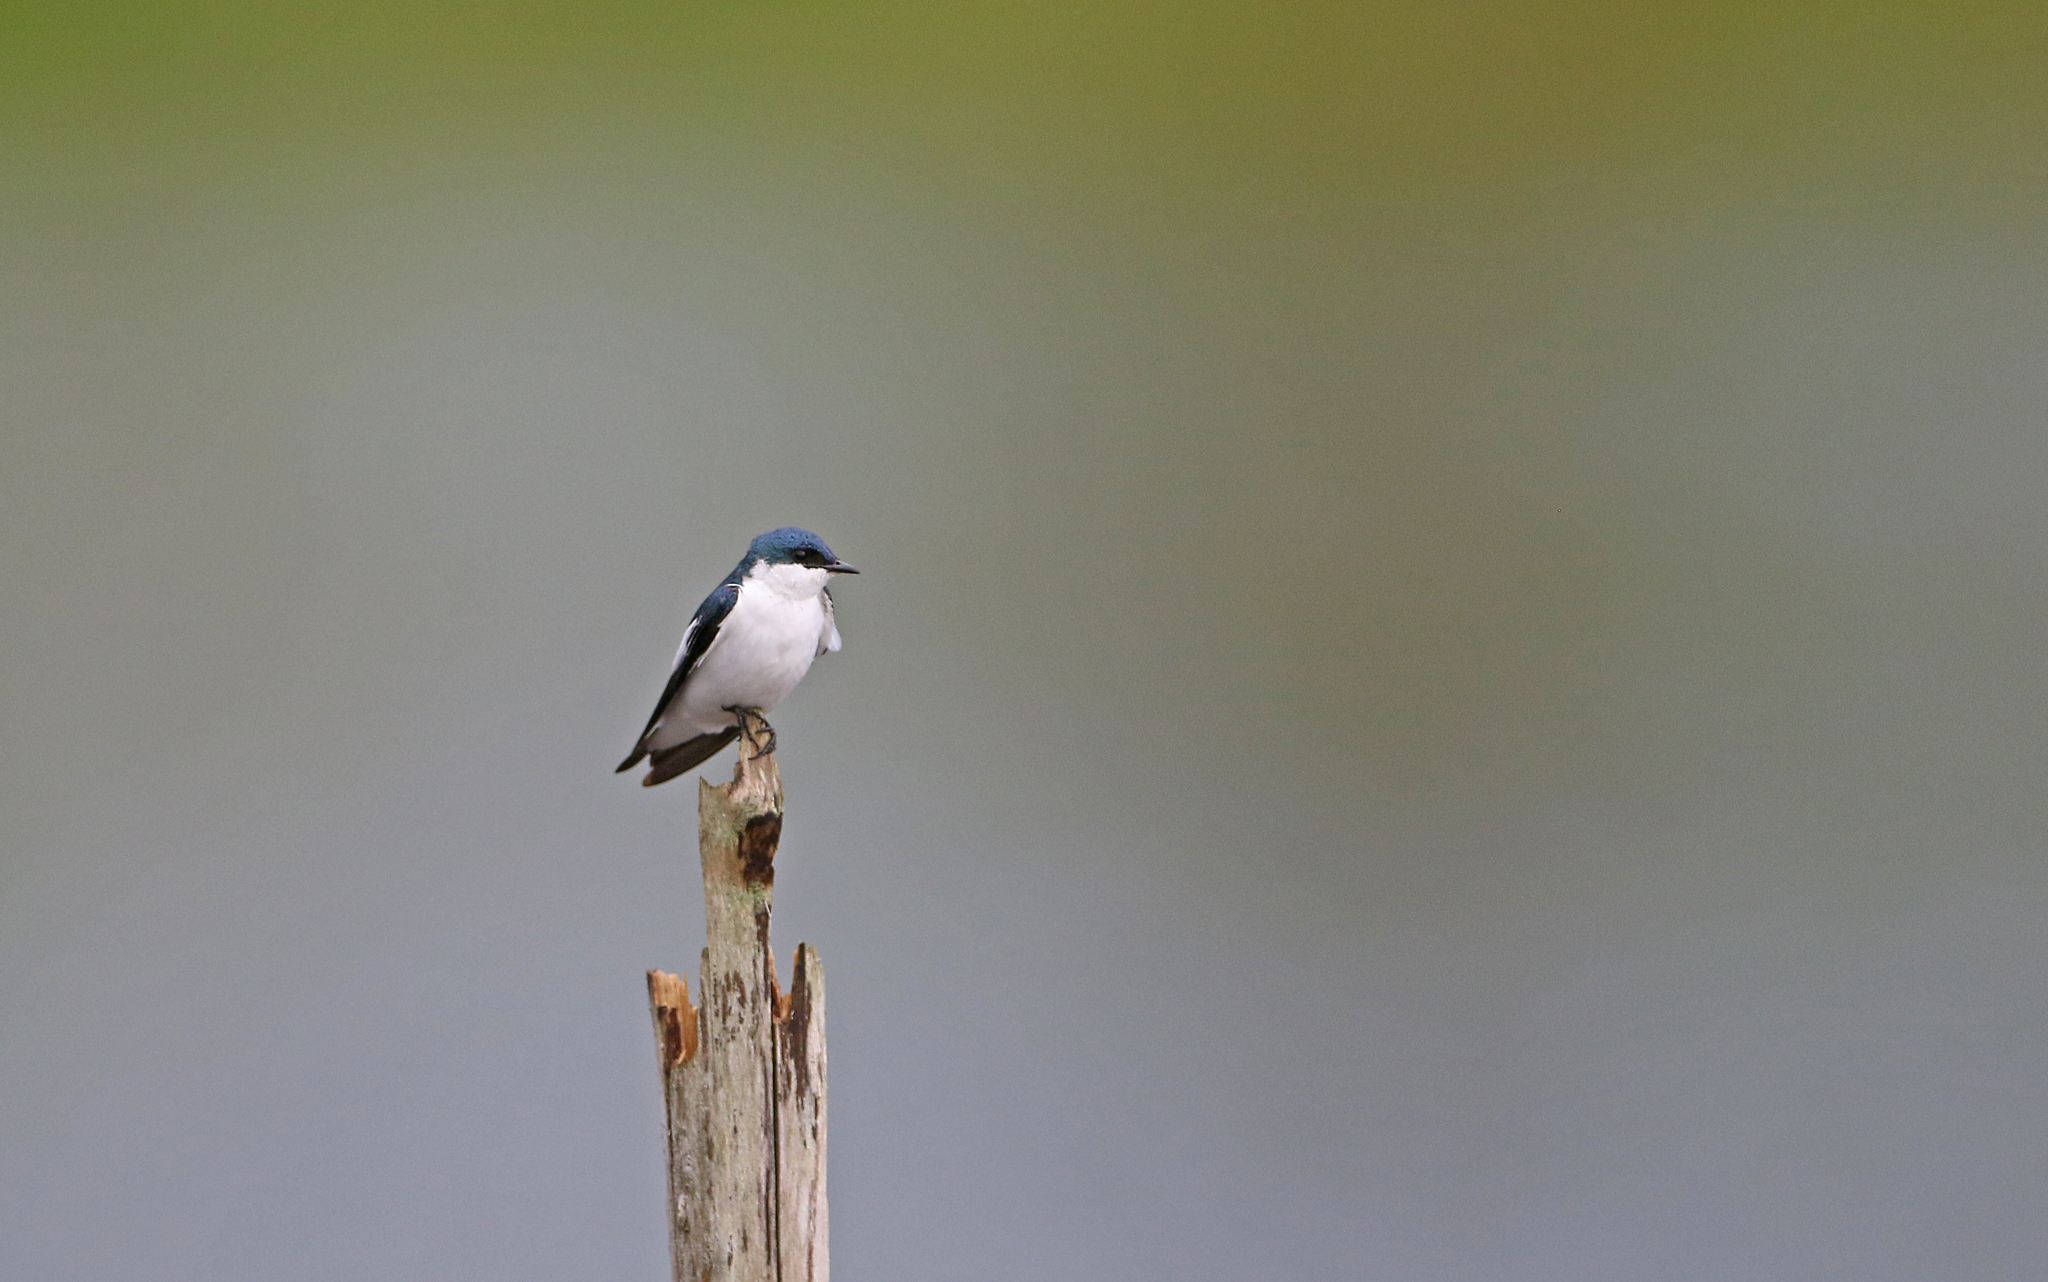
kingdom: Animalia
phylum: Chordata
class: Aves
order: Passeriformes
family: Hirundinidae
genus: Tachycineta
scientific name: Tachycineta albiventer
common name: White-winged swallow
